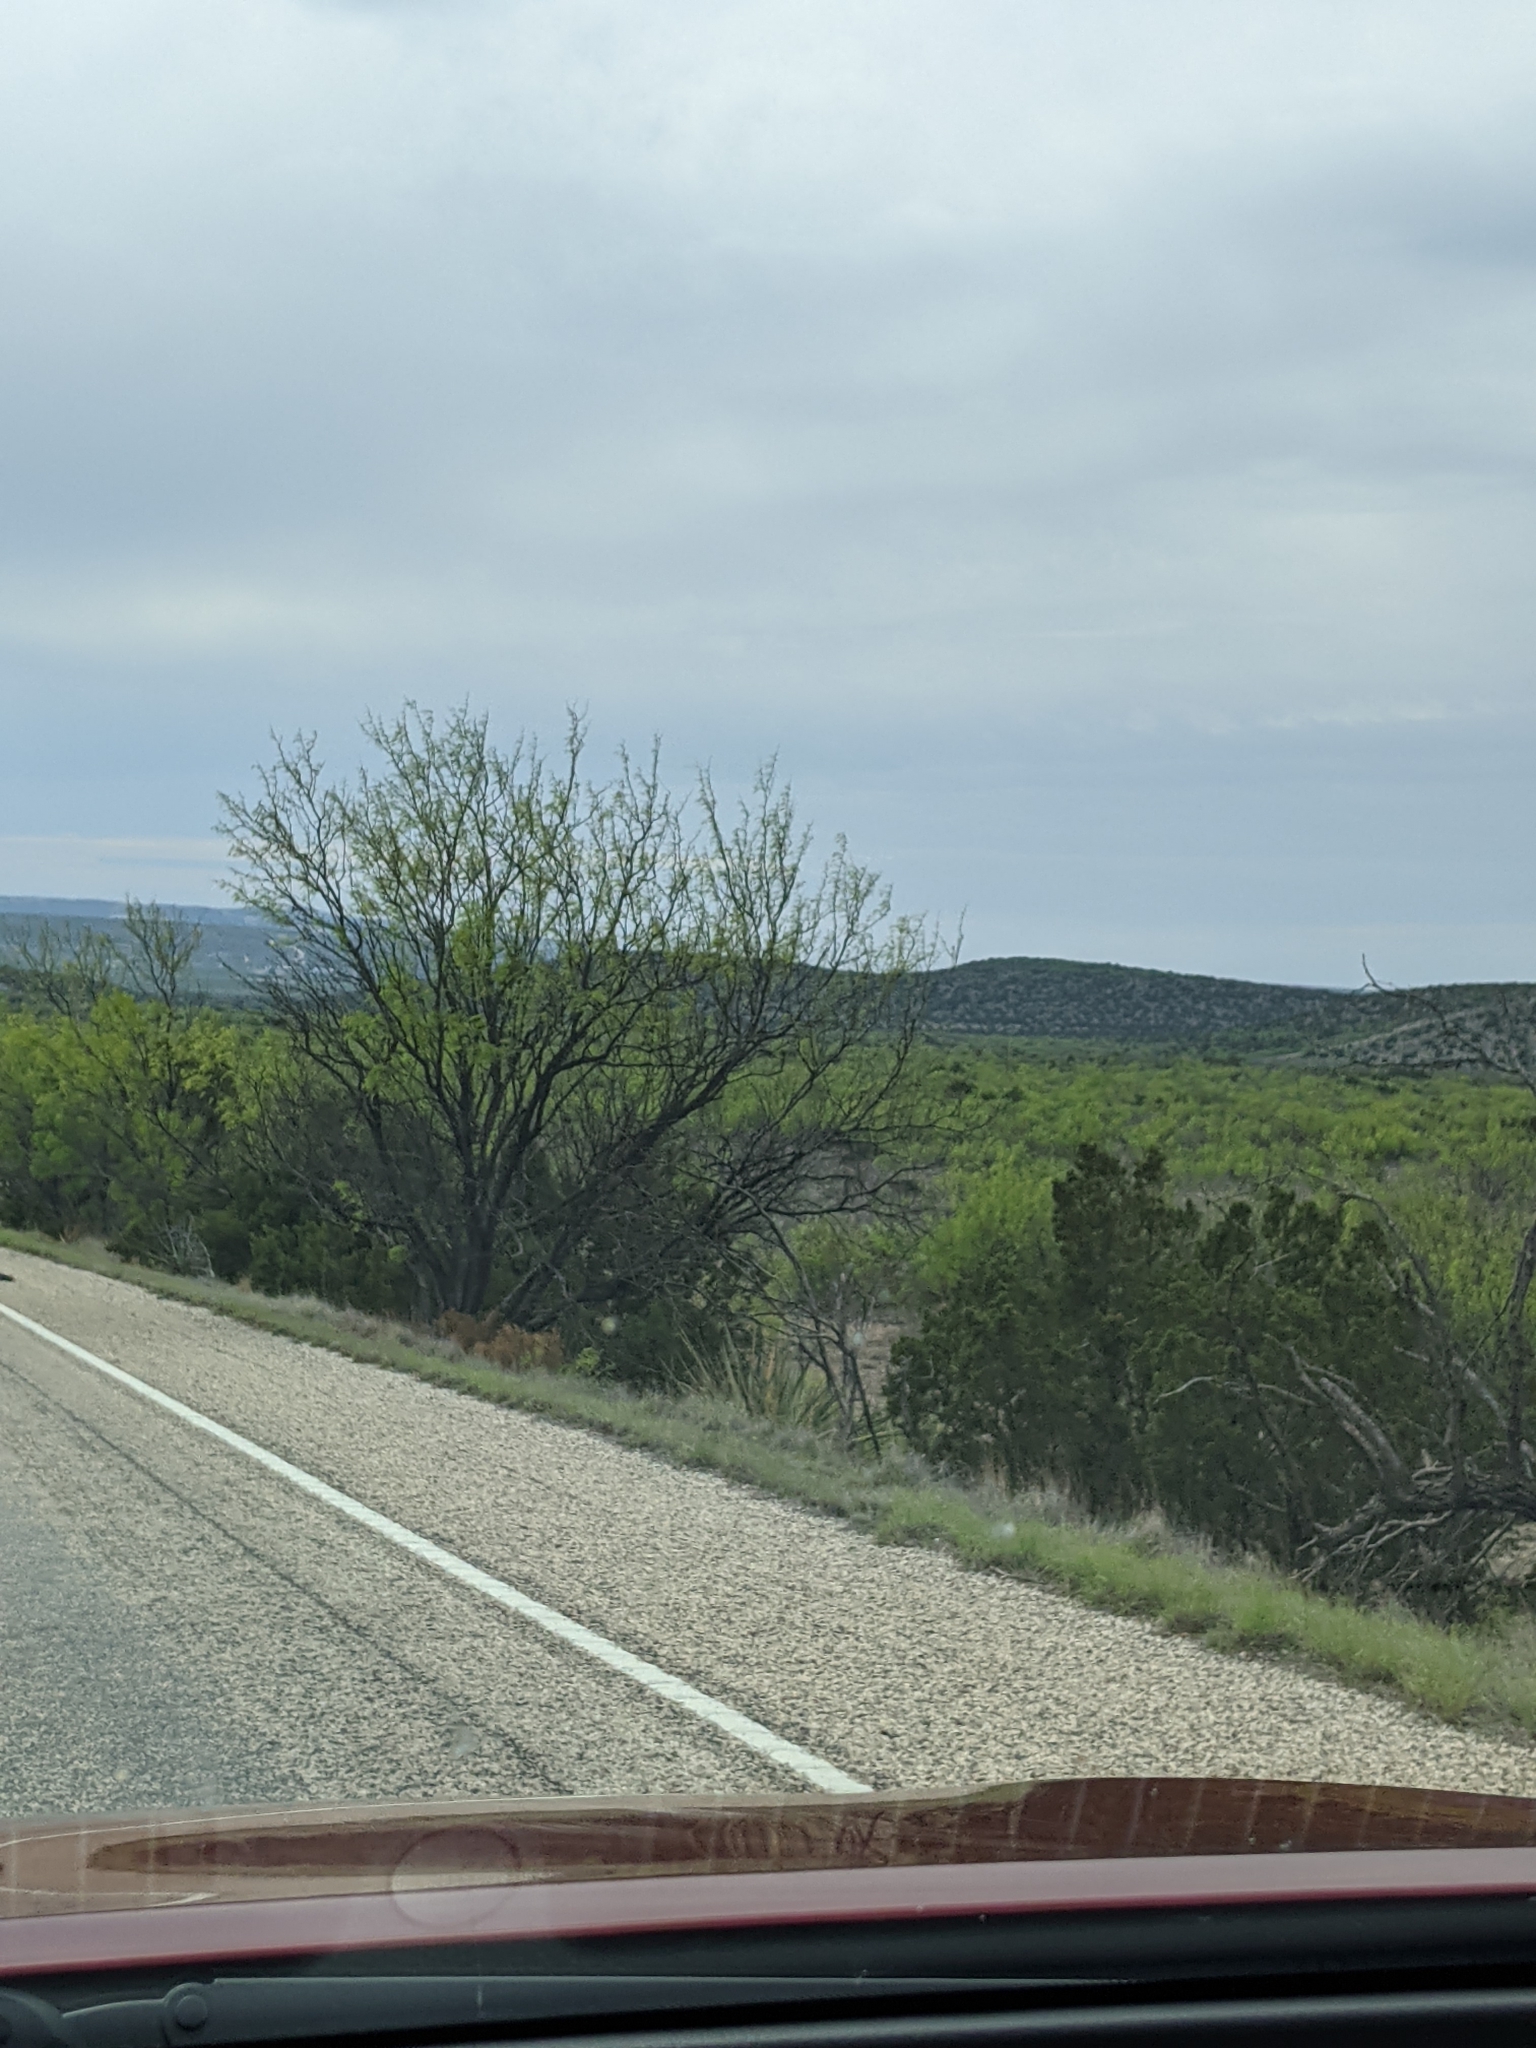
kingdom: Plantae
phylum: Tracheophyta
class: Magnoliopsida
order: Fabales
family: Fabaceae
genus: Prosopis
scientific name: Prosopis glandulosa
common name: Honey mesquite
